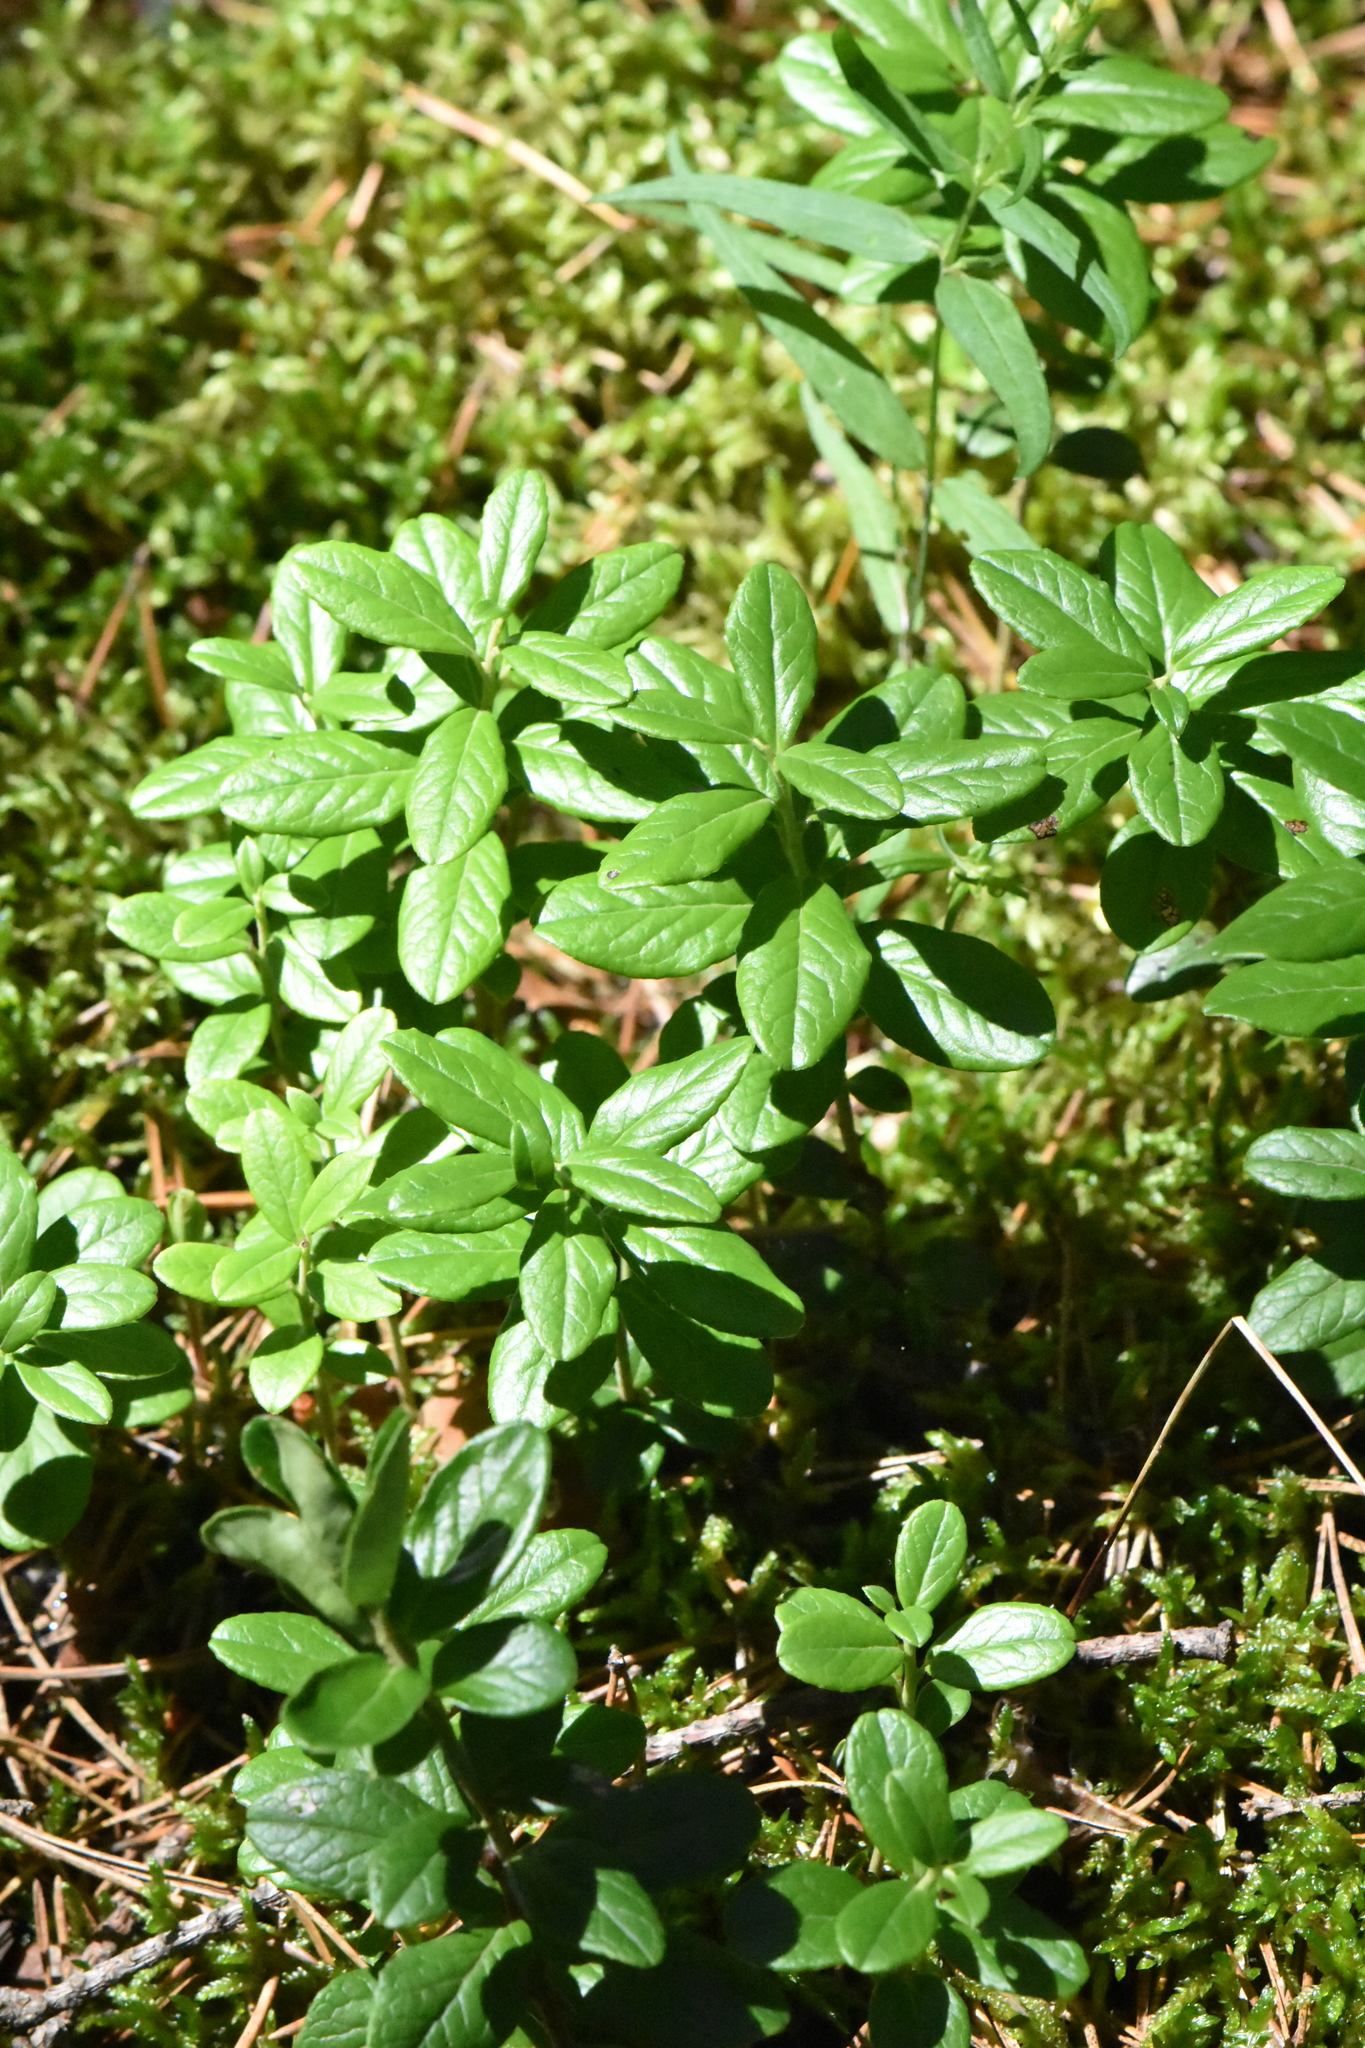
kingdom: Plantae
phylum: Tracheophyta
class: Magnoliopsida
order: Ericales
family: Ericaceae
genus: Vaccinium
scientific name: Vaccinium vitis-idaea
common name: Cowberry
